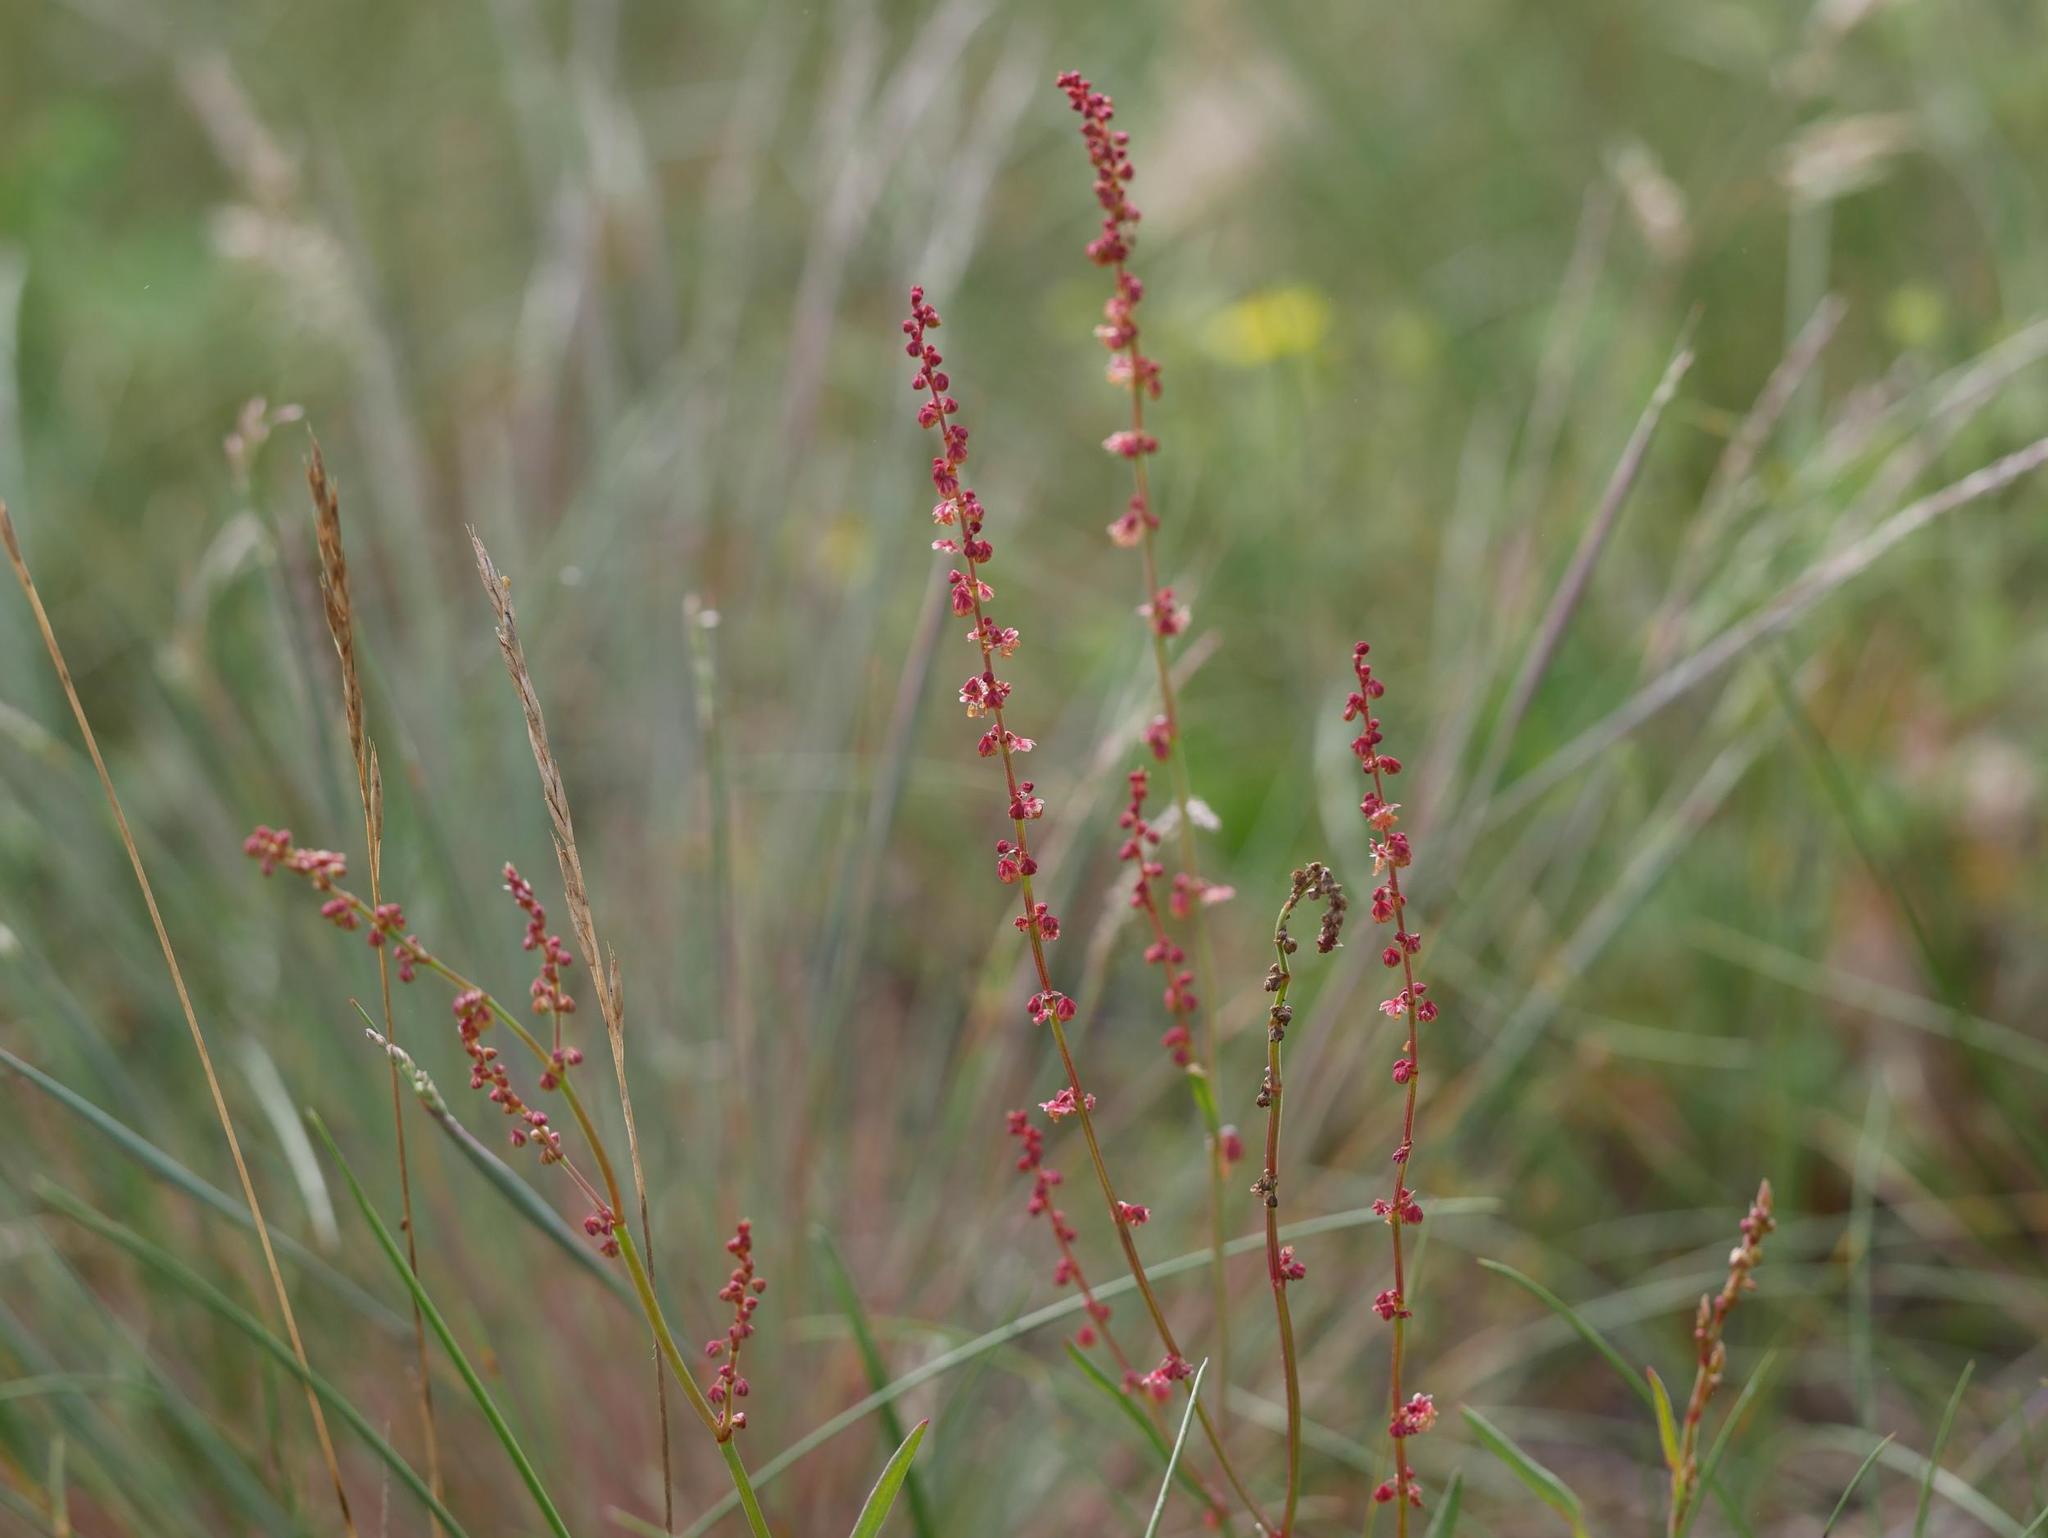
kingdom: Plantae
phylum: Tracheophyta
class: Magnoliopsida
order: Caryophyllales
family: Polygonaceae
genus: Rumex
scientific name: Rumex acetosella
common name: Common sheep sorrel
